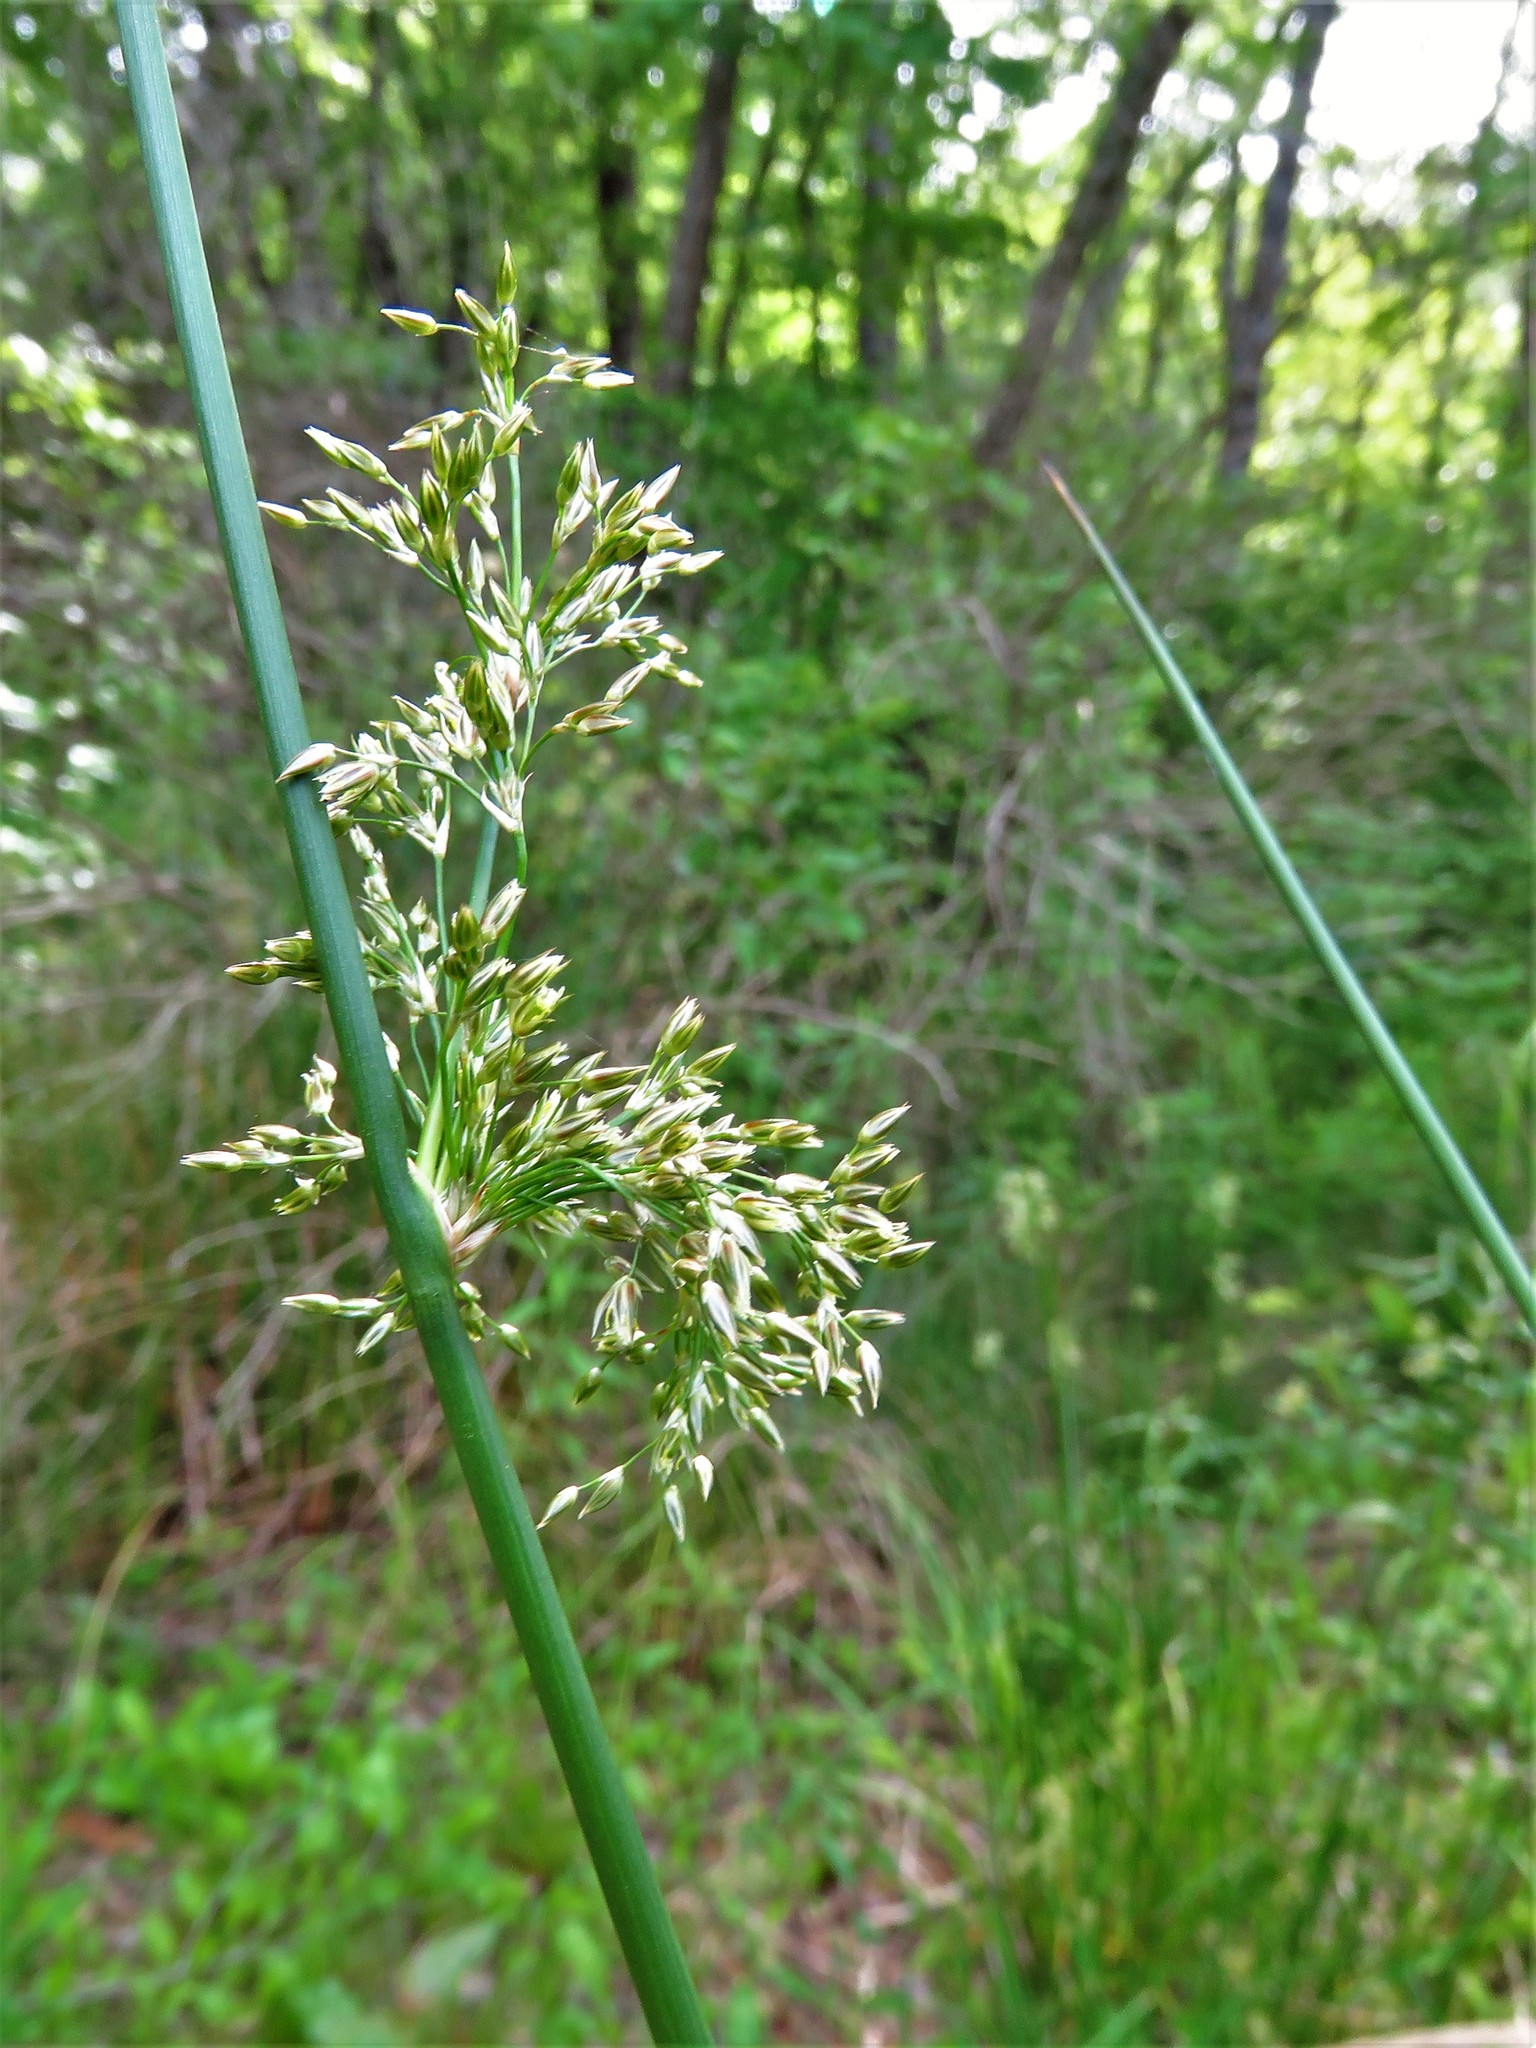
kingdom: Plantae
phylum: Tracheophyta
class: Liliopsida
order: Poales
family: Juncaceae
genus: Juncus
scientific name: Juncus effusus
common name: Soft rush
